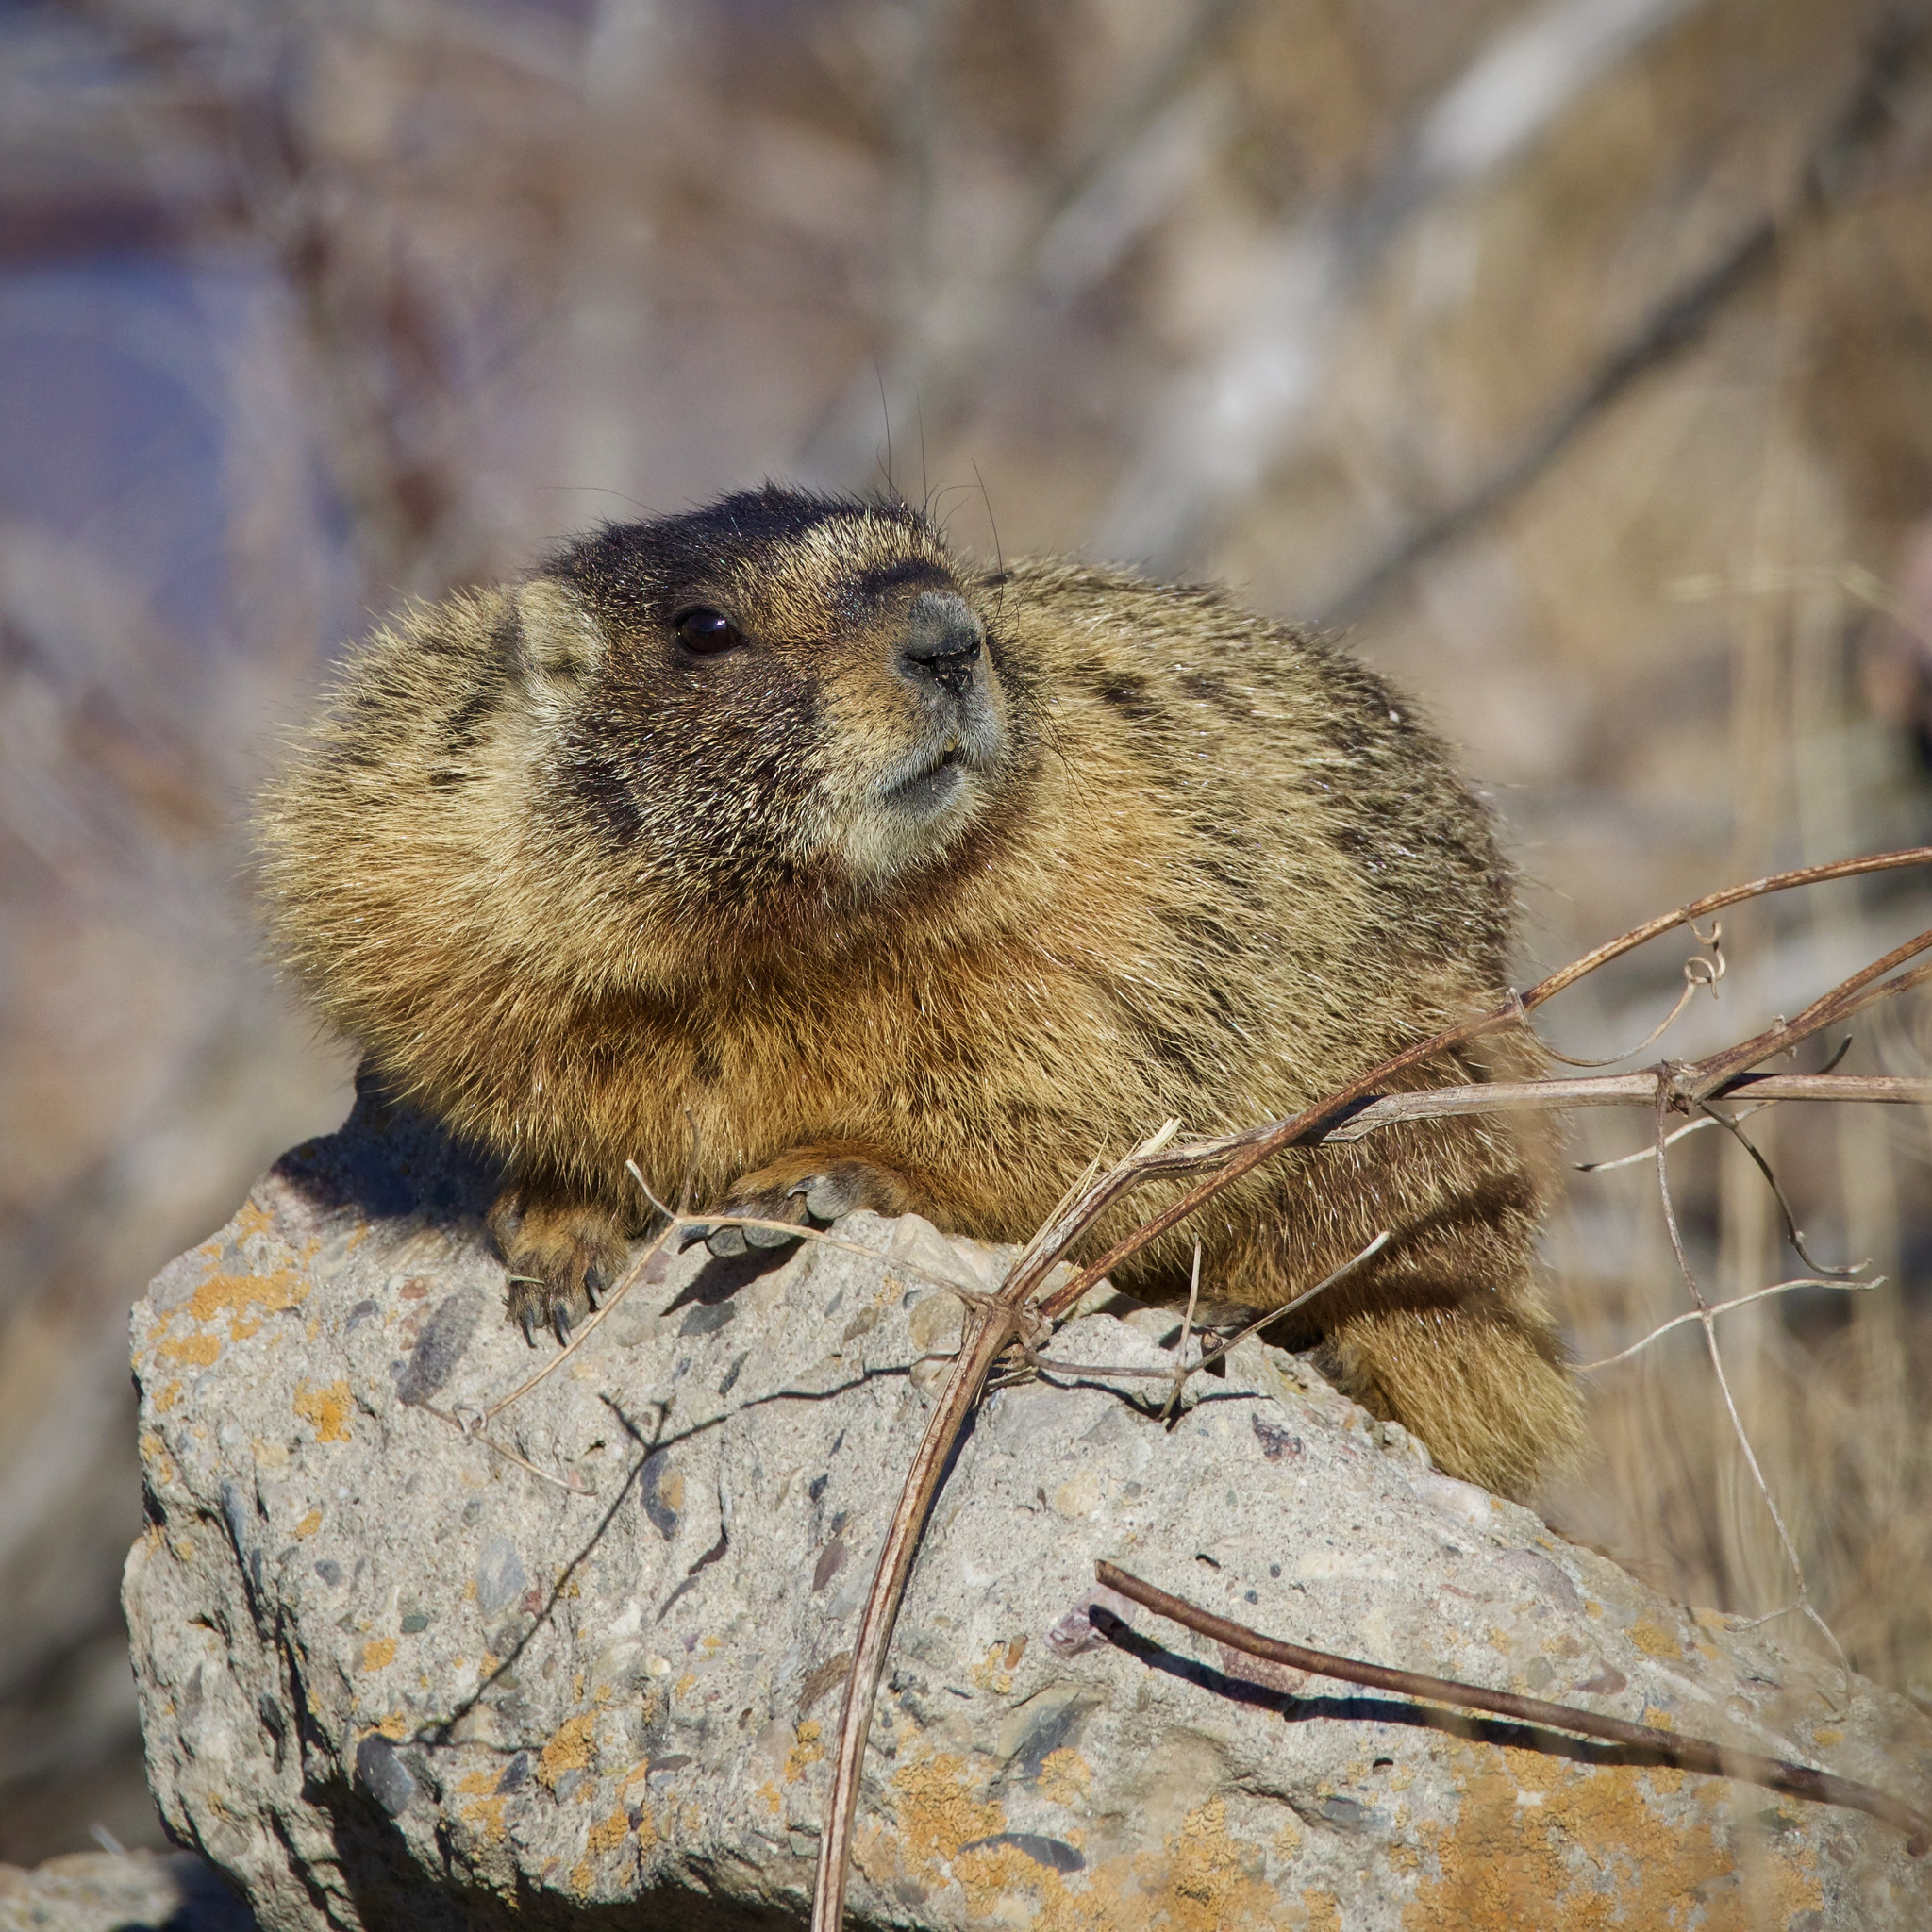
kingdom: Animalia
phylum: Chordata
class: Mammalia
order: Rodentia
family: Sciuridae
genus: Marmota
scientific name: Marmota flaviventris
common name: Yellow-bellied marmot
